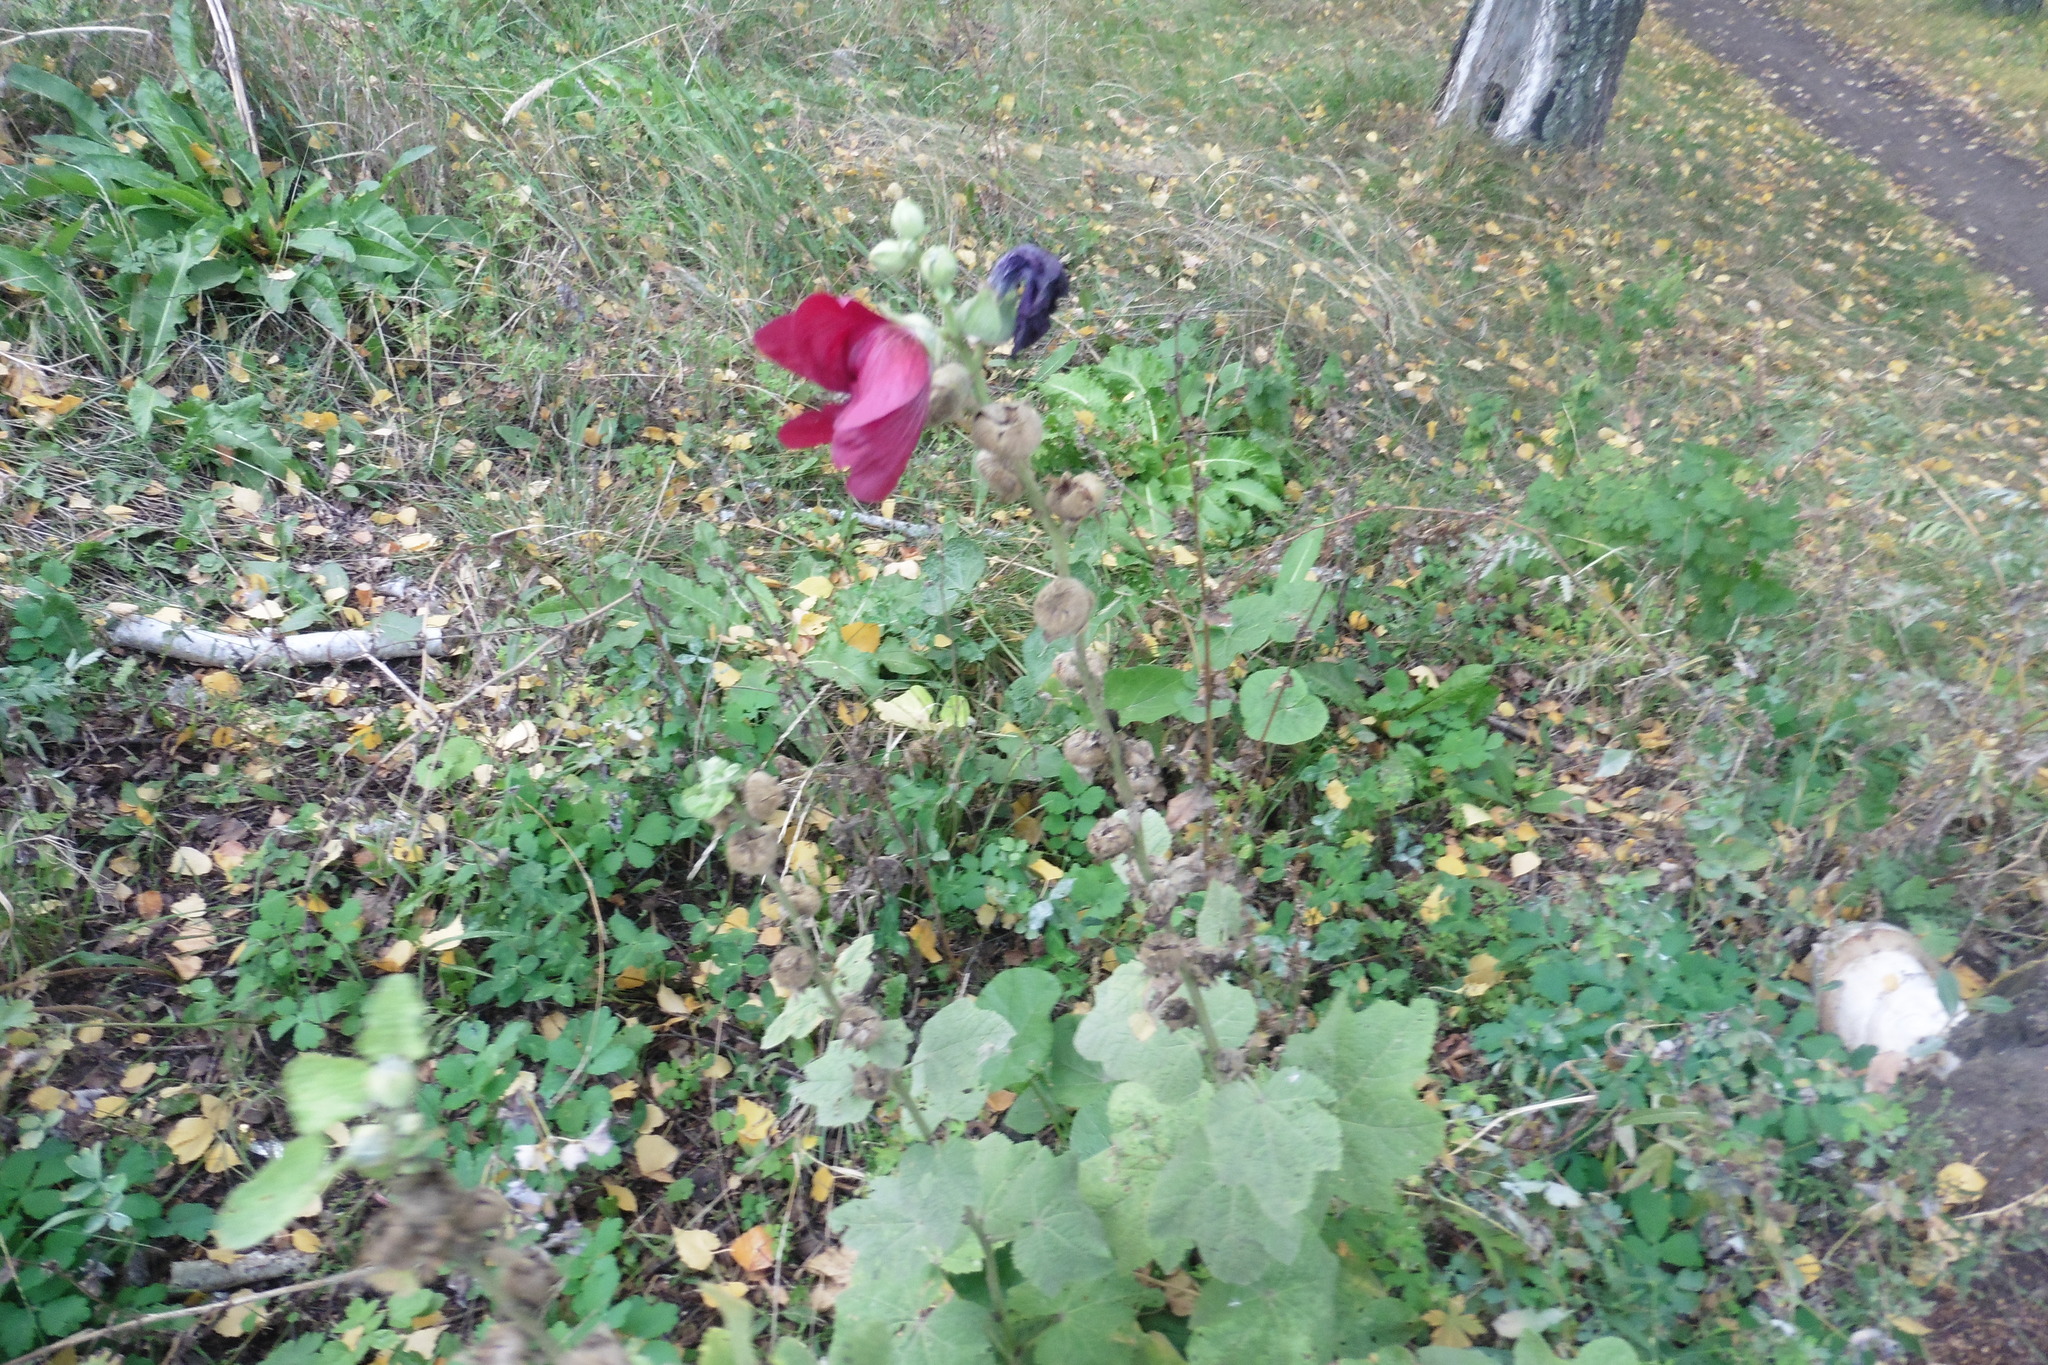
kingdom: Plantae
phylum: Tracheophyta
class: Magnoliopsida
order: Malvales
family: Malvaceae
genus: Alcea
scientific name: Alcea rosea
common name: Hollyhock
